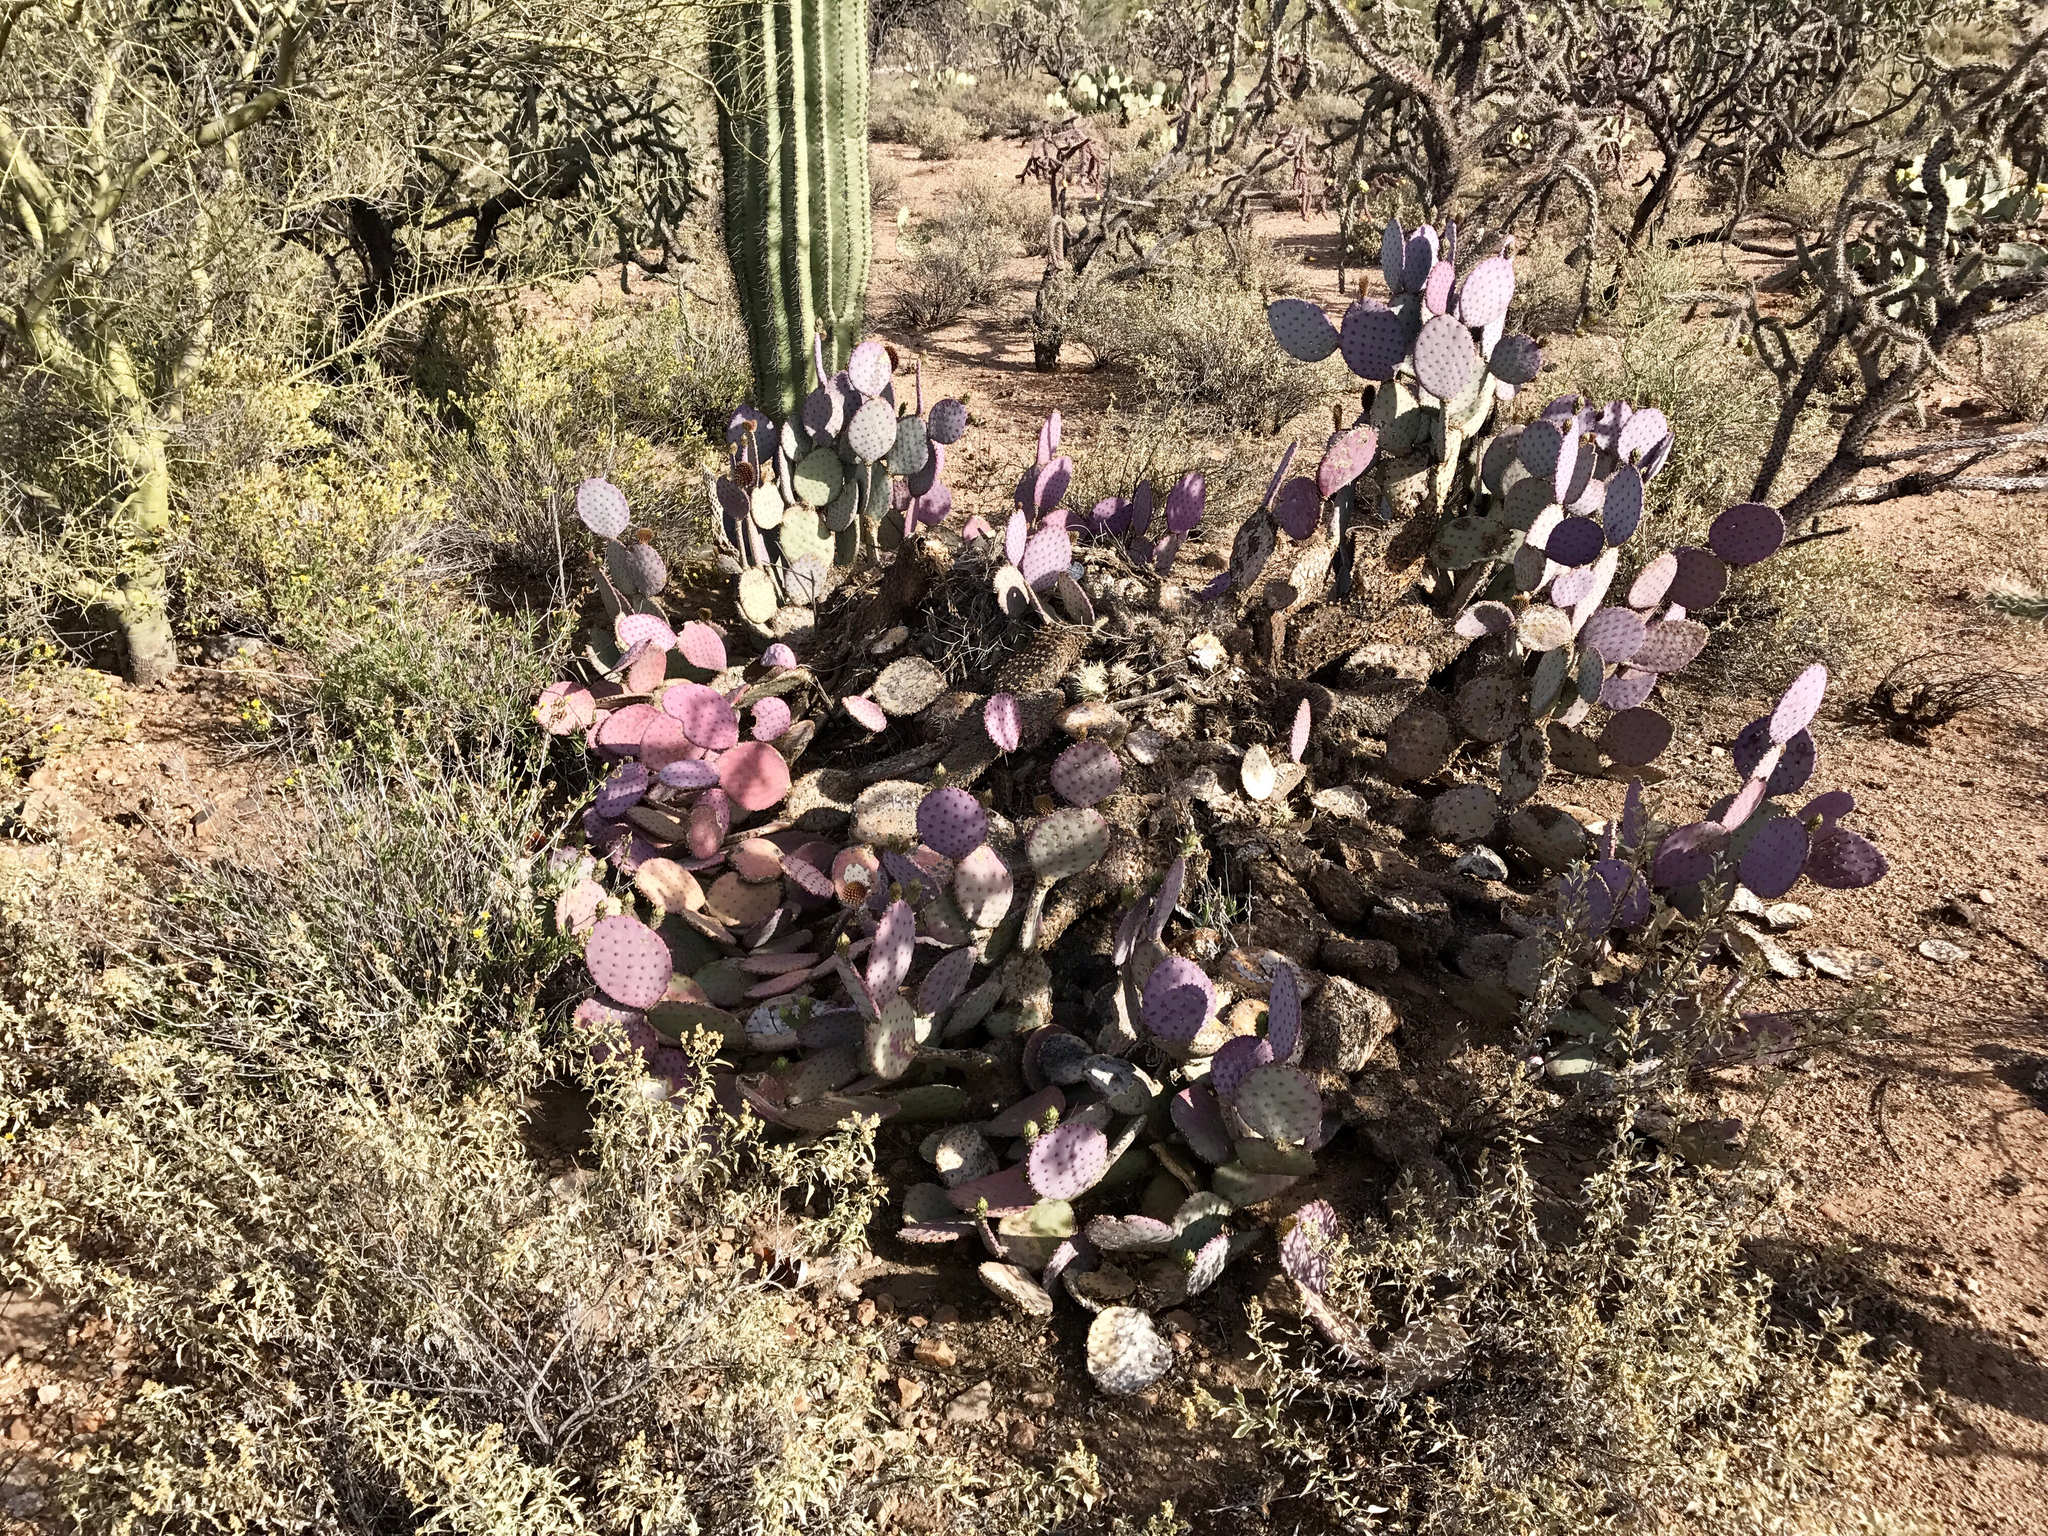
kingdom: Plantae
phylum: Tracheophyta
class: Magnoliopsida
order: Caryophyllales
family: Cactaceae
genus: Opuntia
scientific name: Opuntia gosseliniana
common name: Violet prickly-pear
